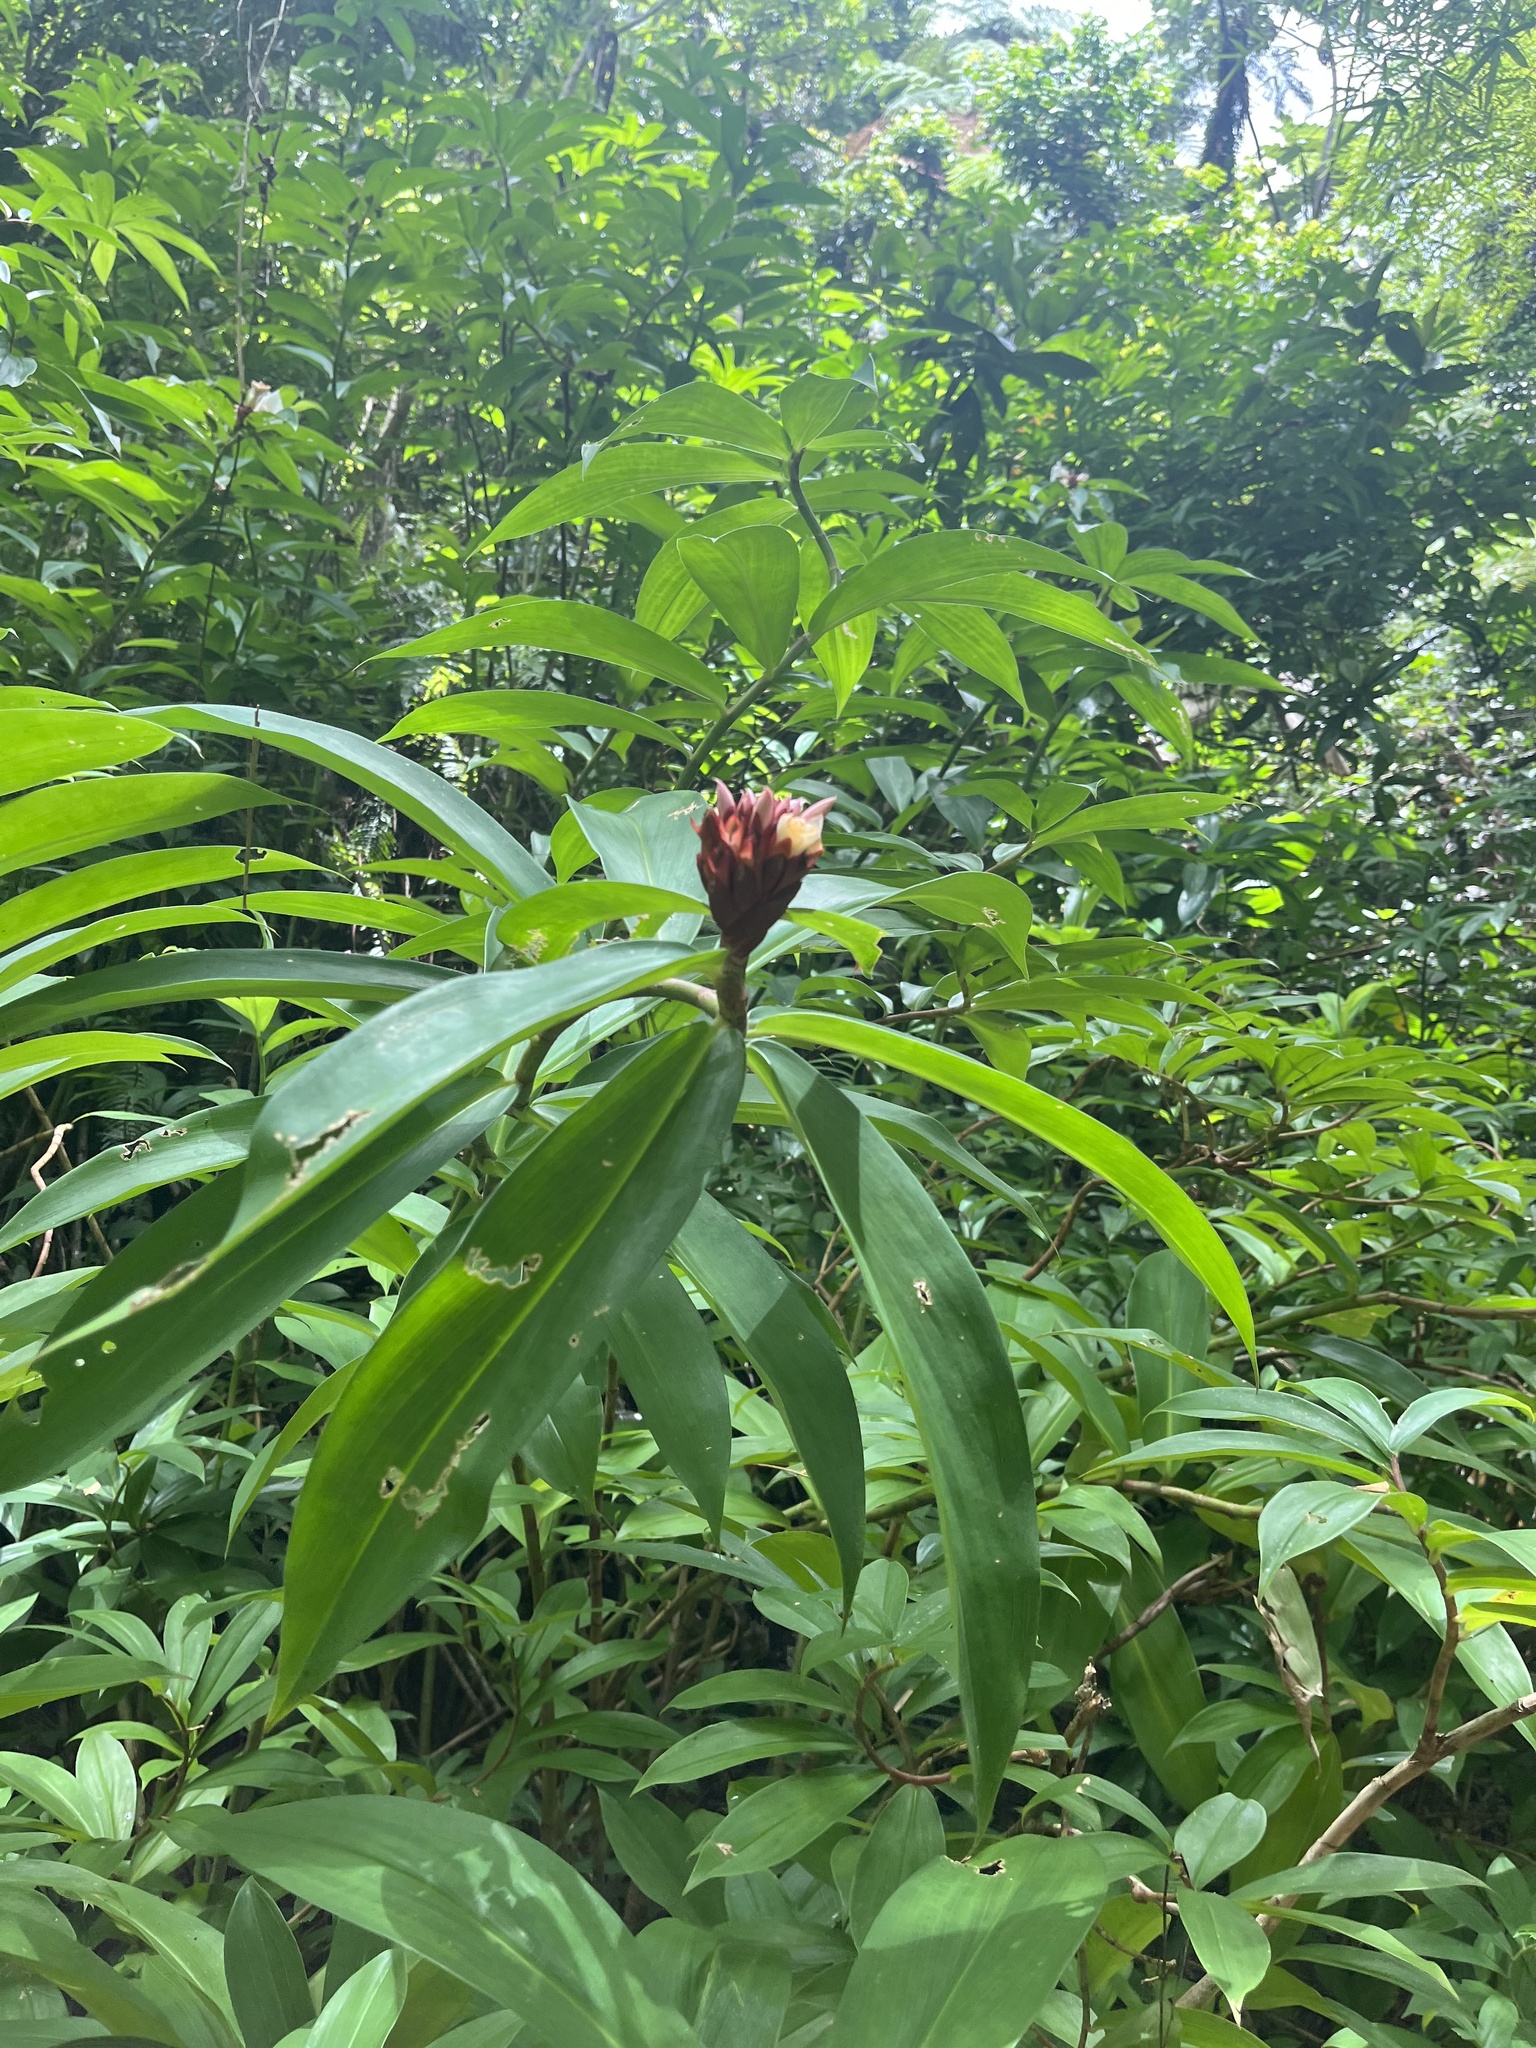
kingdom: Plantae
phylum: Tracheophyta
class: Liliopsida
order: Zingiberales
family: Costaceae
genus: Hellenia
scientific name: Hellenia speciosa
